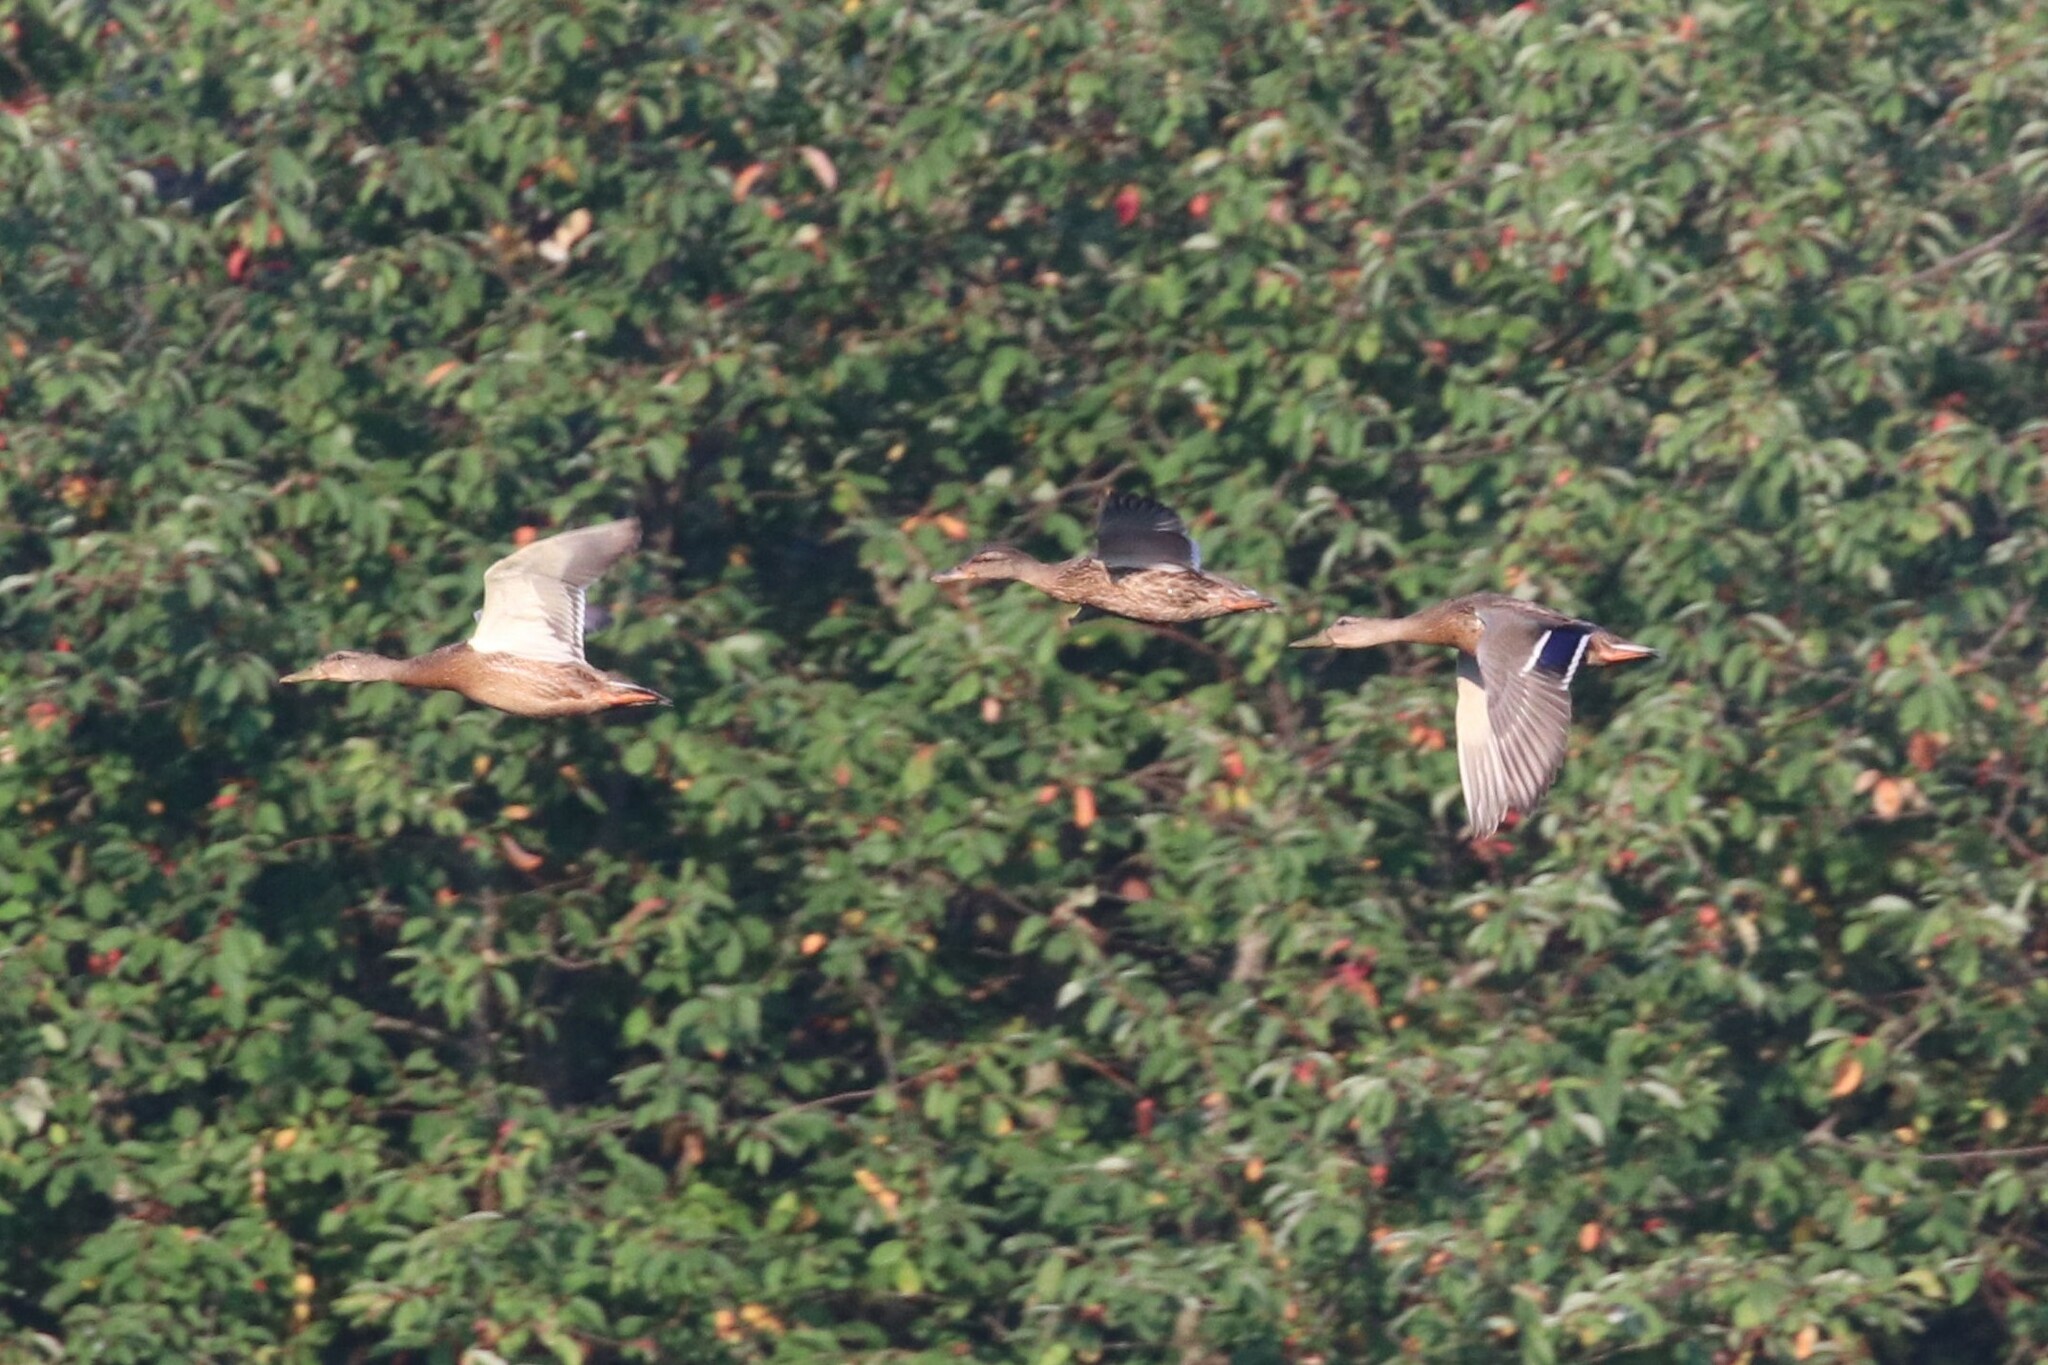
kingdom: Animalia
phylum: Chordata
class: Aves
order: Anseriformes
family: Anatidae
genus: Anas
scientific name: Anas platyrhynchos
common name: Mallard
